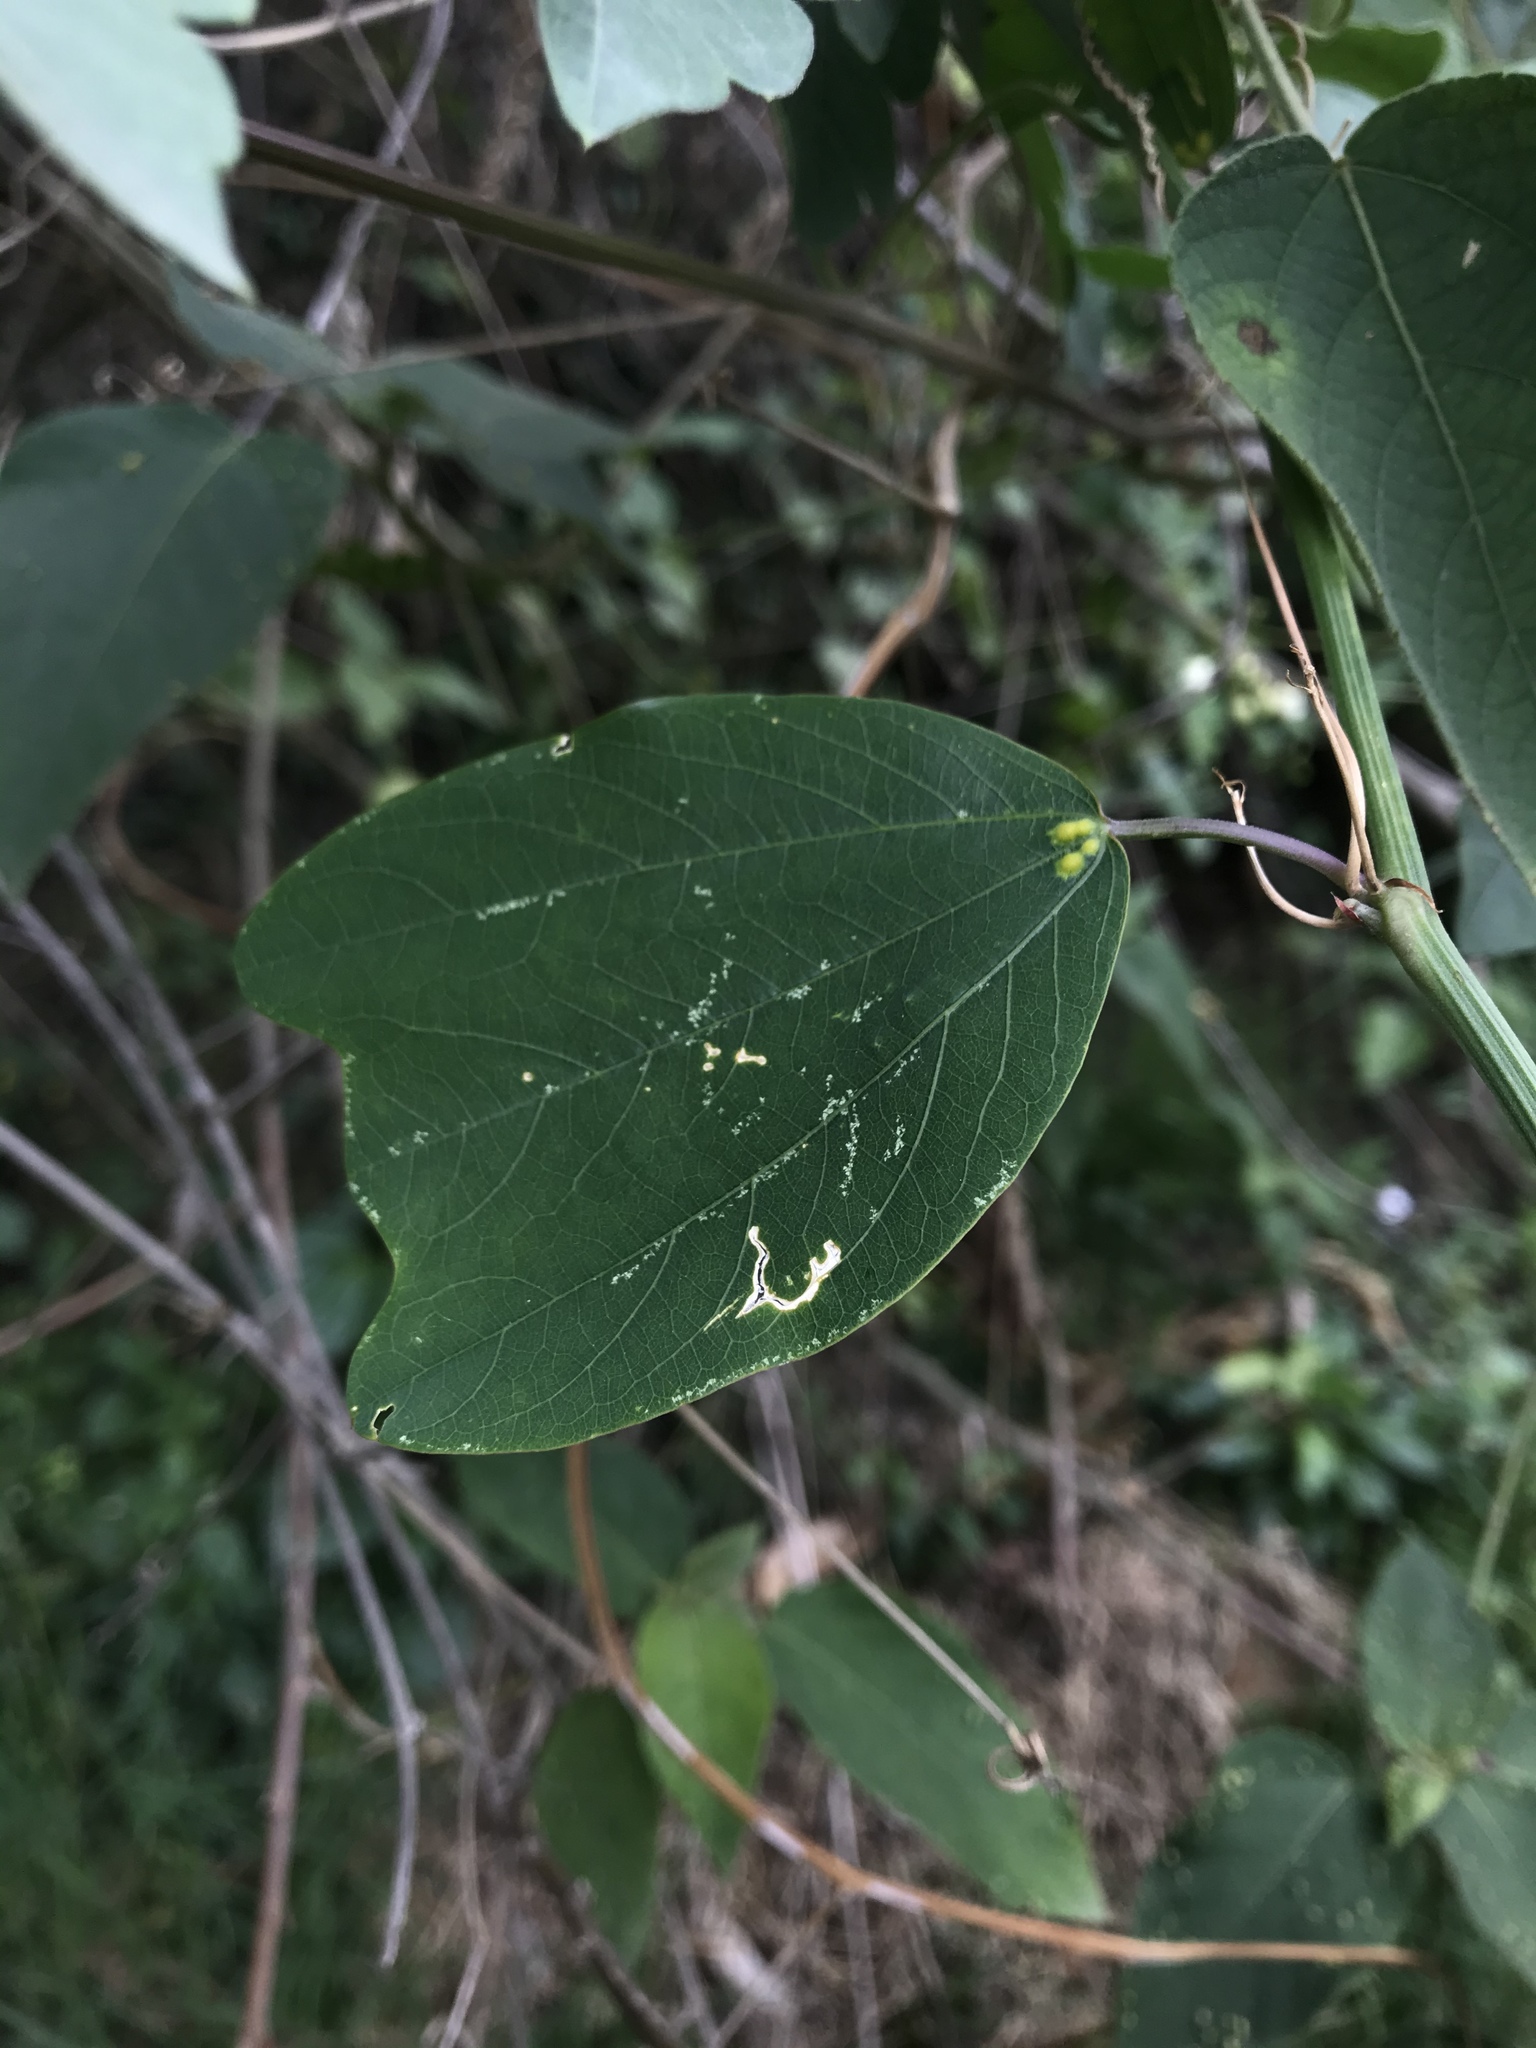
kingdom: Plantae
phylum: Tracheophyta
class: Magnoliopsida
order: Malpighiales
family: Passifloraceae
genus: Passiflora
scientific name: Passiflora cuneata
